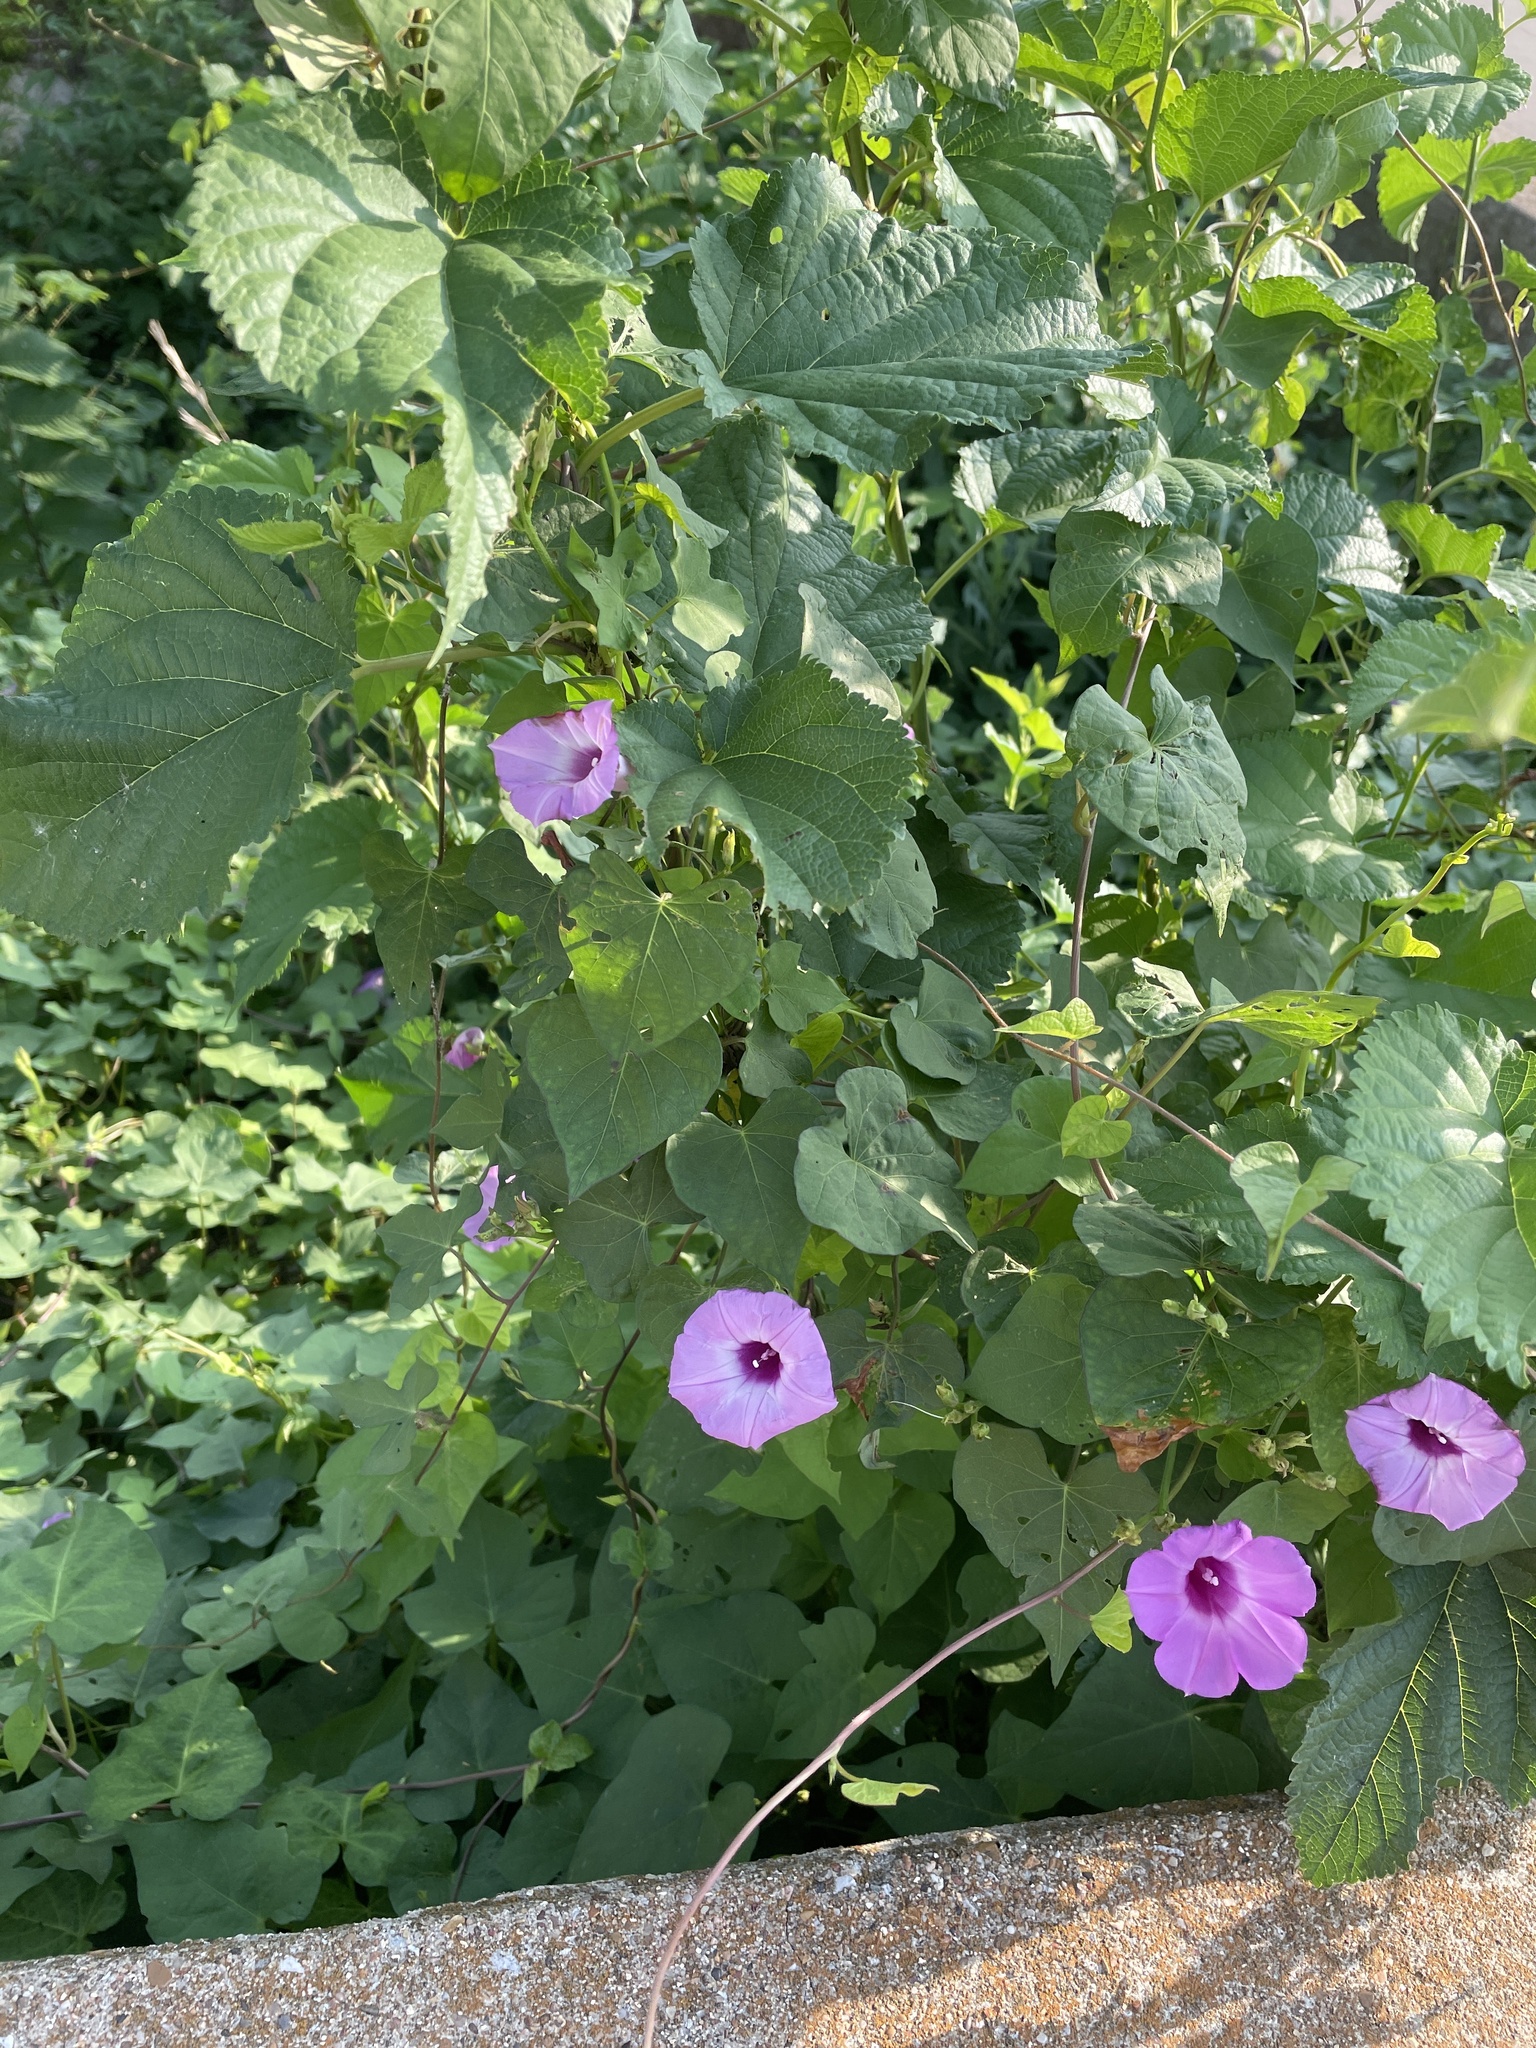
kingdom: Plantae
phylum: Tracheophyta
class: Magnoliopsida
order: Solanales
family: Convolvulaceae
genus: Ipomoea
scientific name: Ipomoea cordatotriloba
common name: Cotton morning glory
